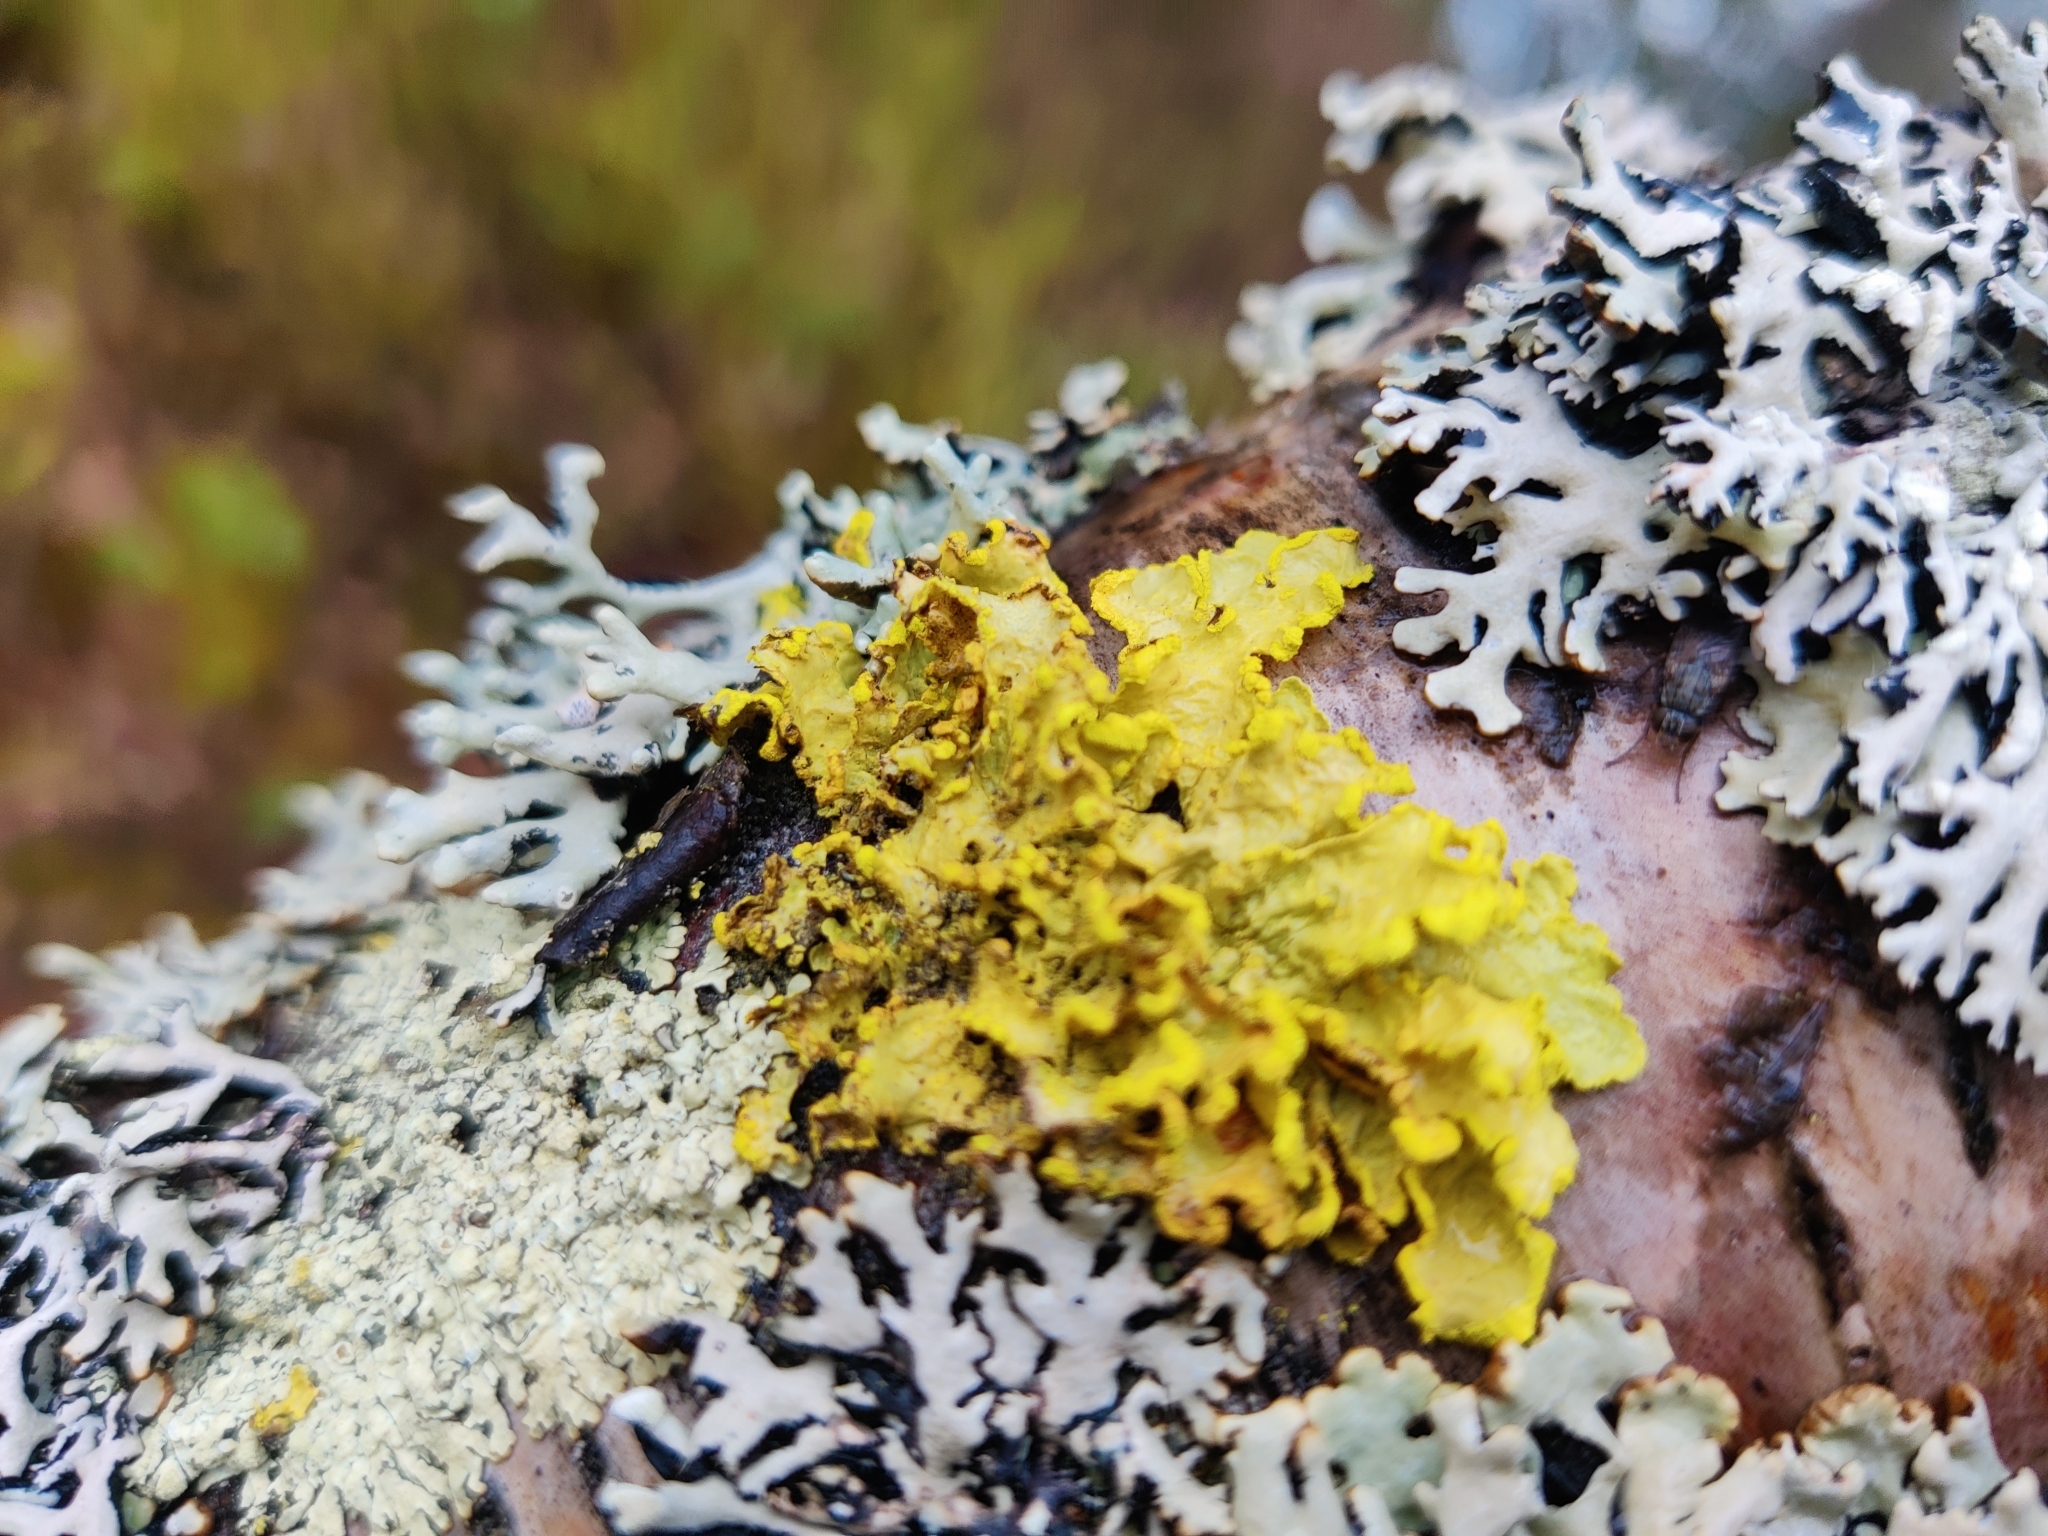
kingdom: Fungi
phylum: Ascomycota
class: Lecanoromycetes
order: Lecanorales
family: Parmeliaceae
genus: Vulpicida
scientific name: Vulpicida pinastri
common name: Powdered sunshine lichen
